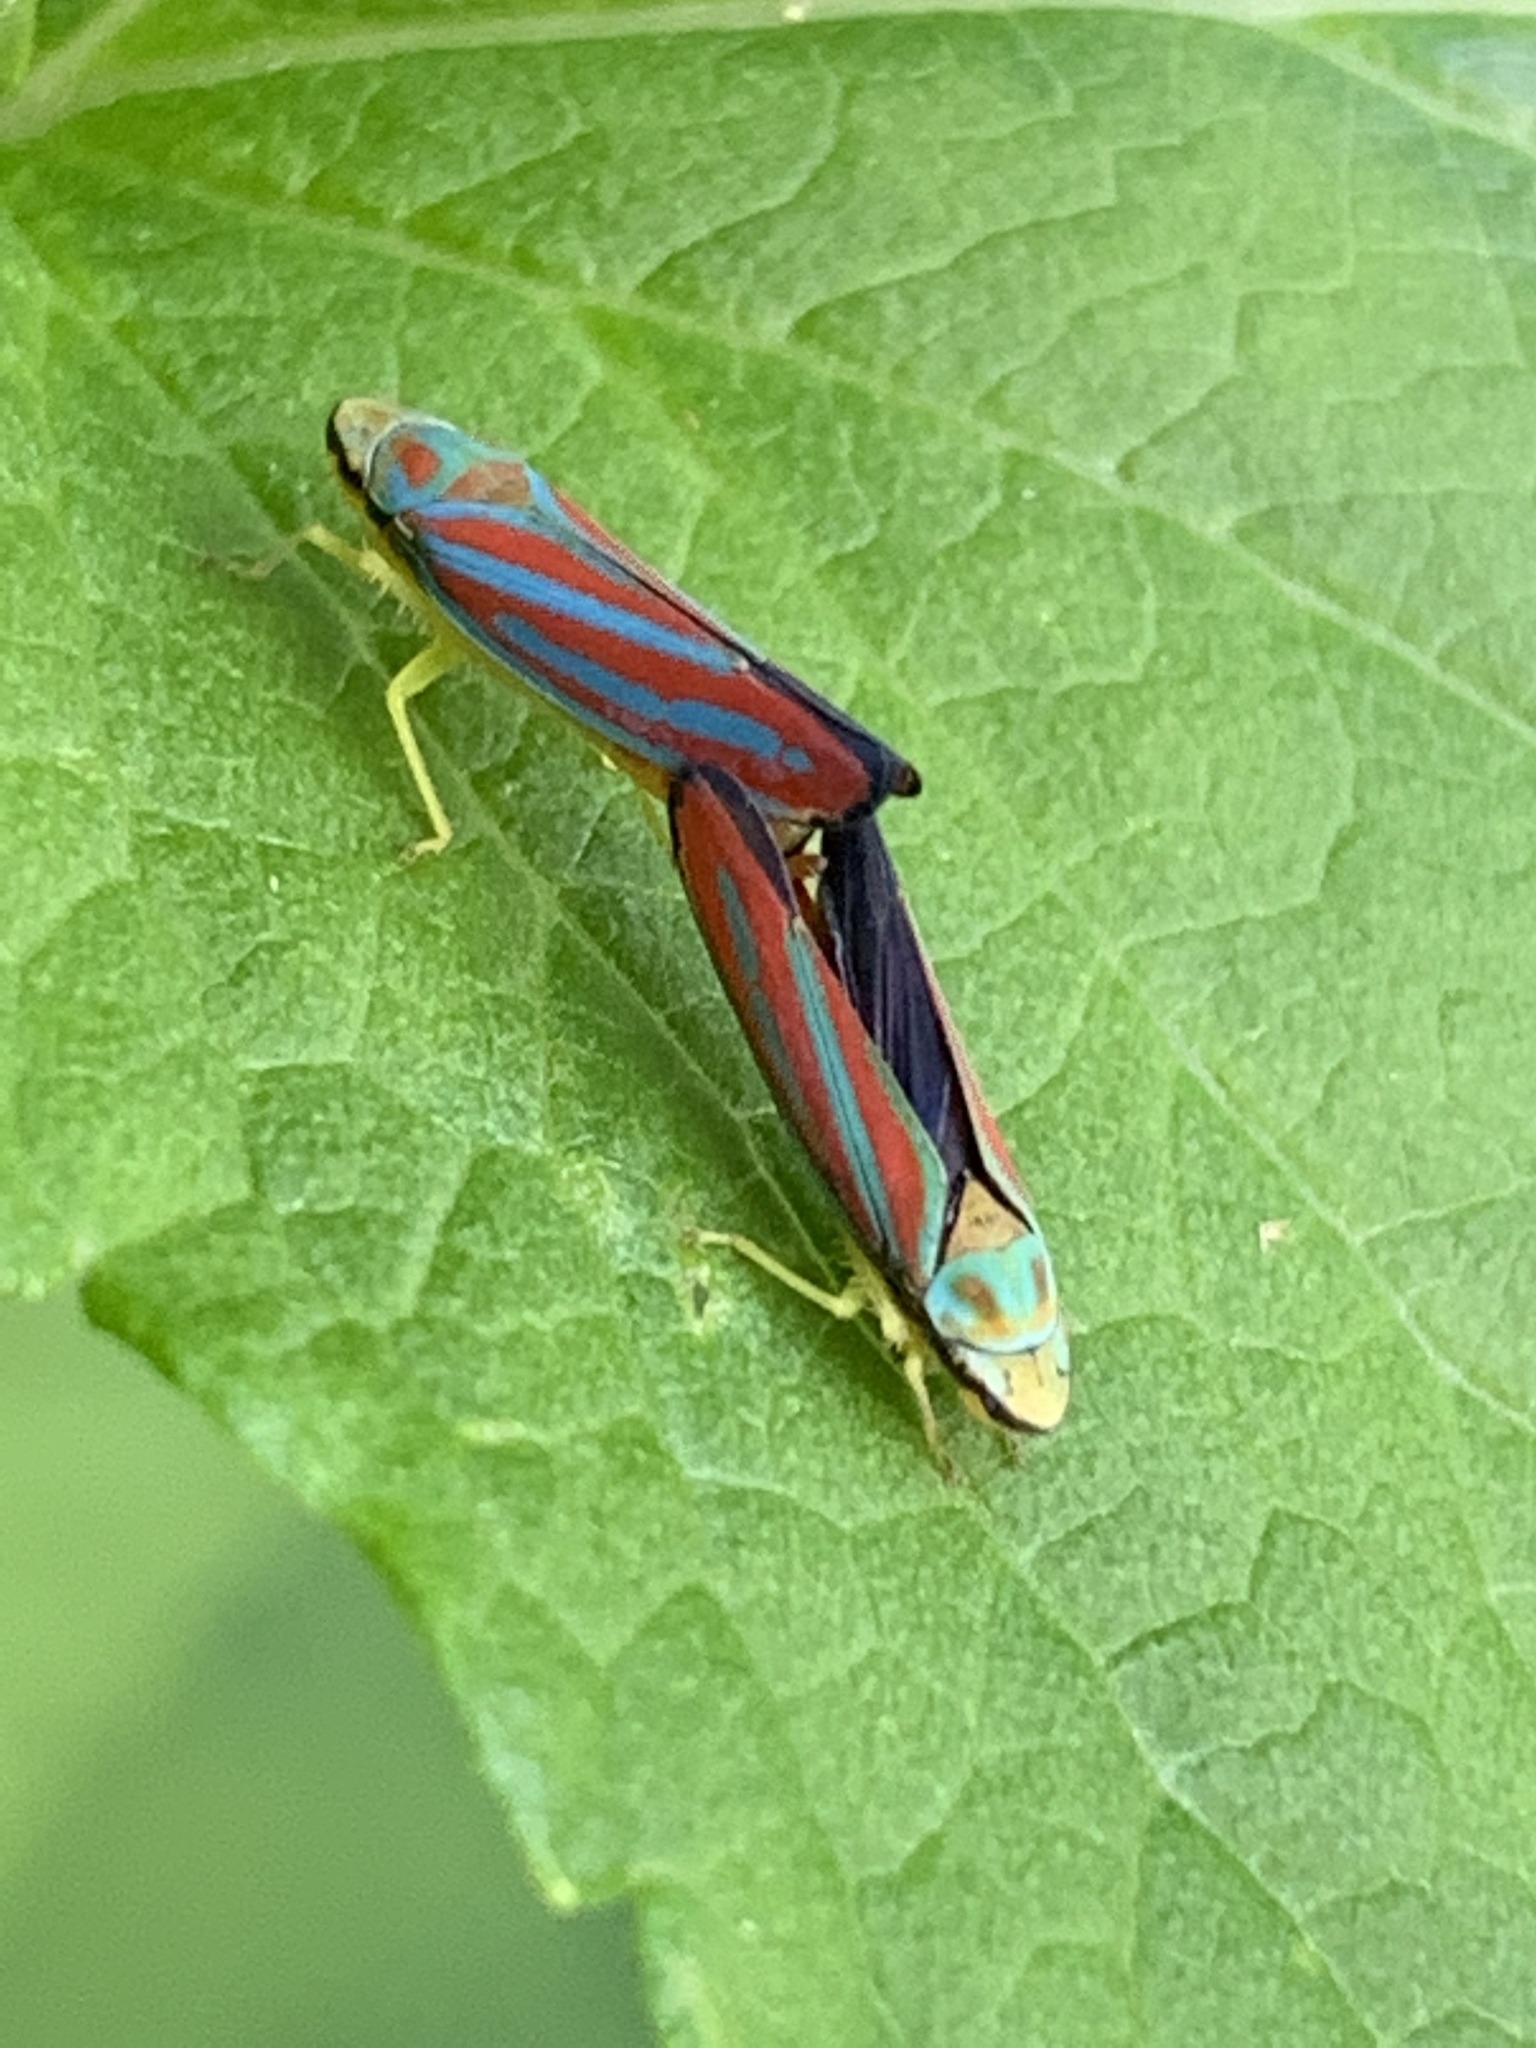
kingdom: Animalia
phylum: Arthropoda
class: Insecta
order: Hemiptera
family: Cicadellidae
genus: Graphocephala
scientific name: Graphocephala coccinea
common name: Candy-striped leafhopper
